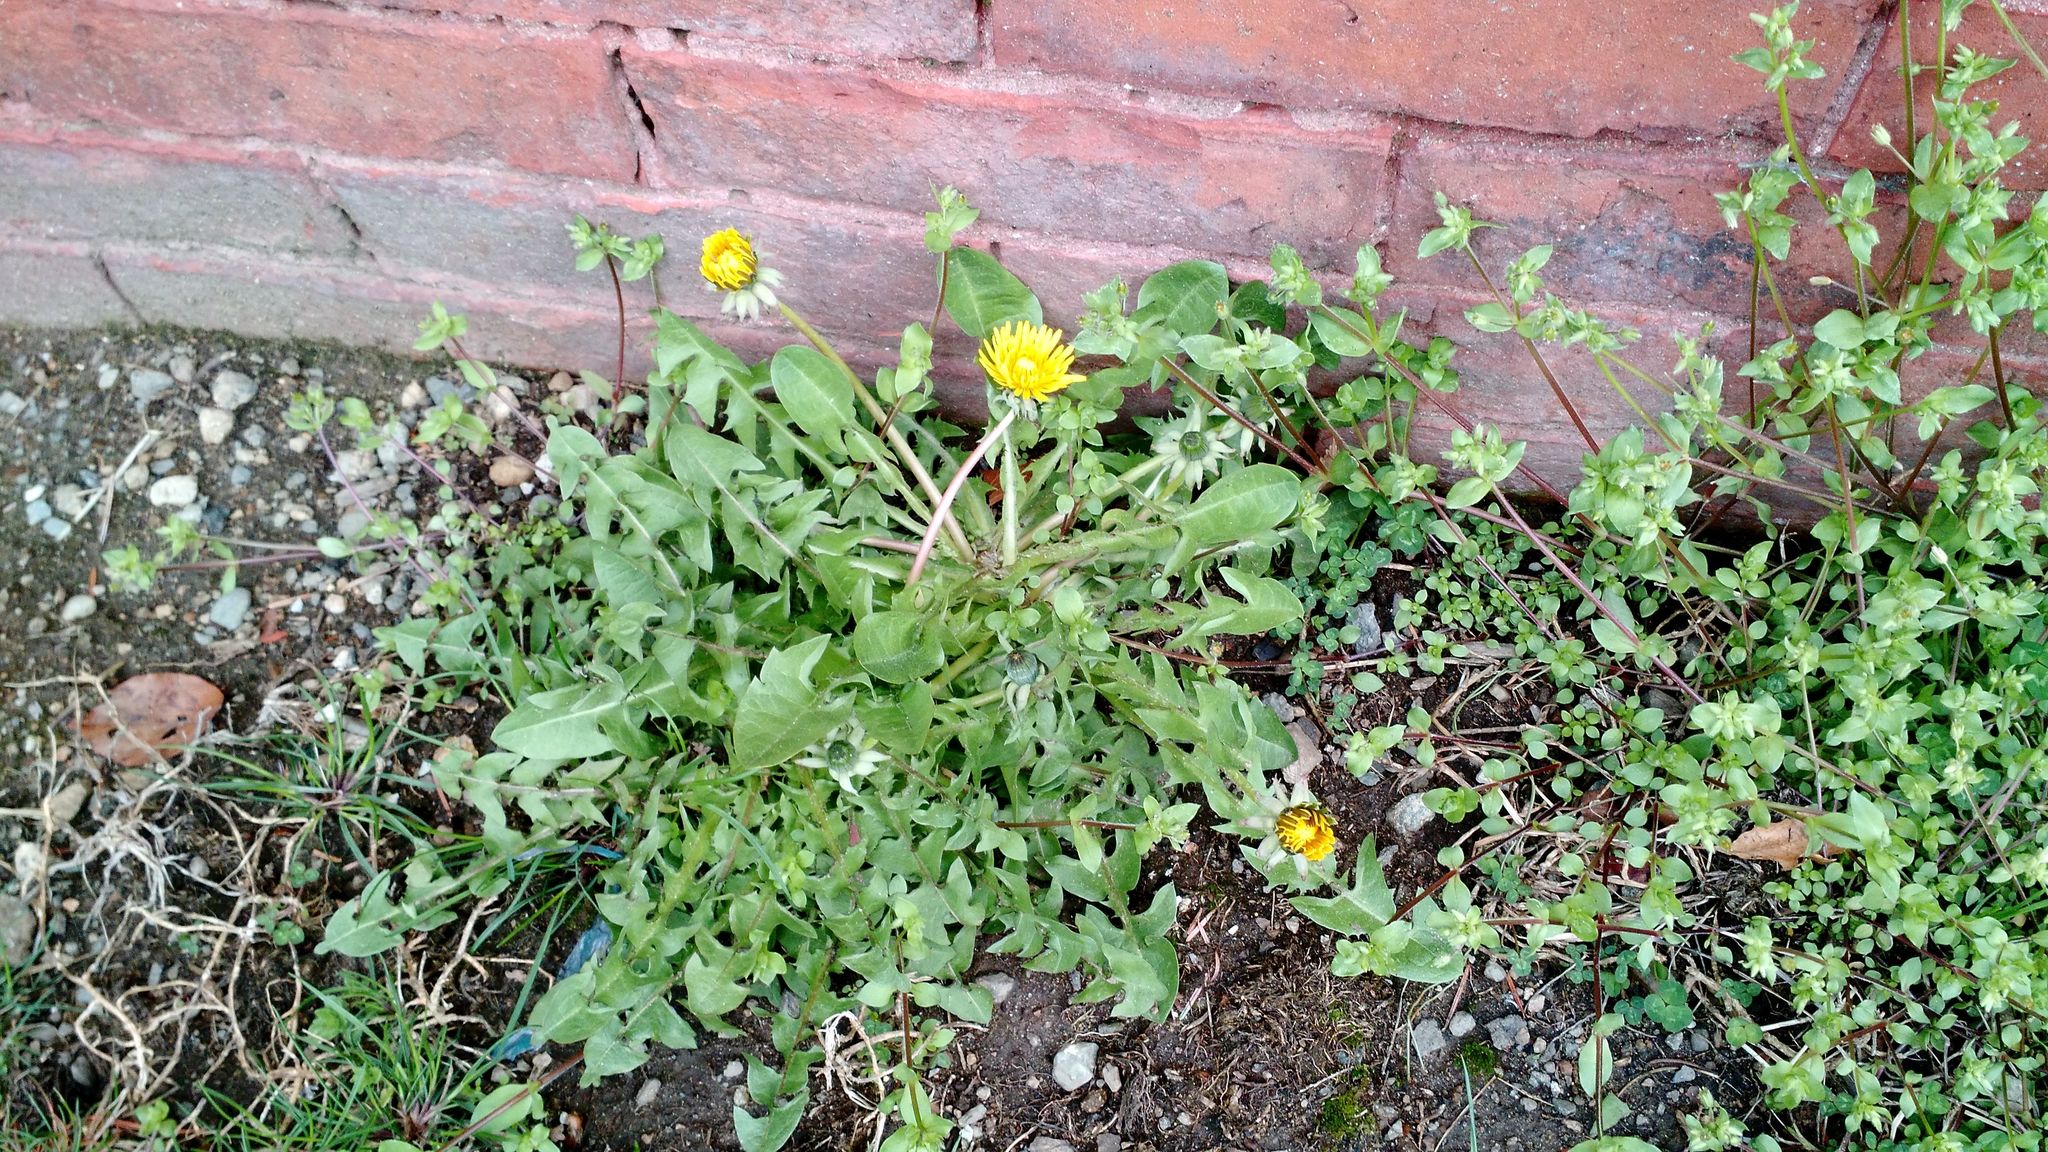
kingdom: Plantae
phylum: Tracheophyta
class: Magnoliopsida
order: Asterales
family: Asteraceae
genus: Taraxacum
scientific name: Taraxacum officinale
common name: Common dandelion
